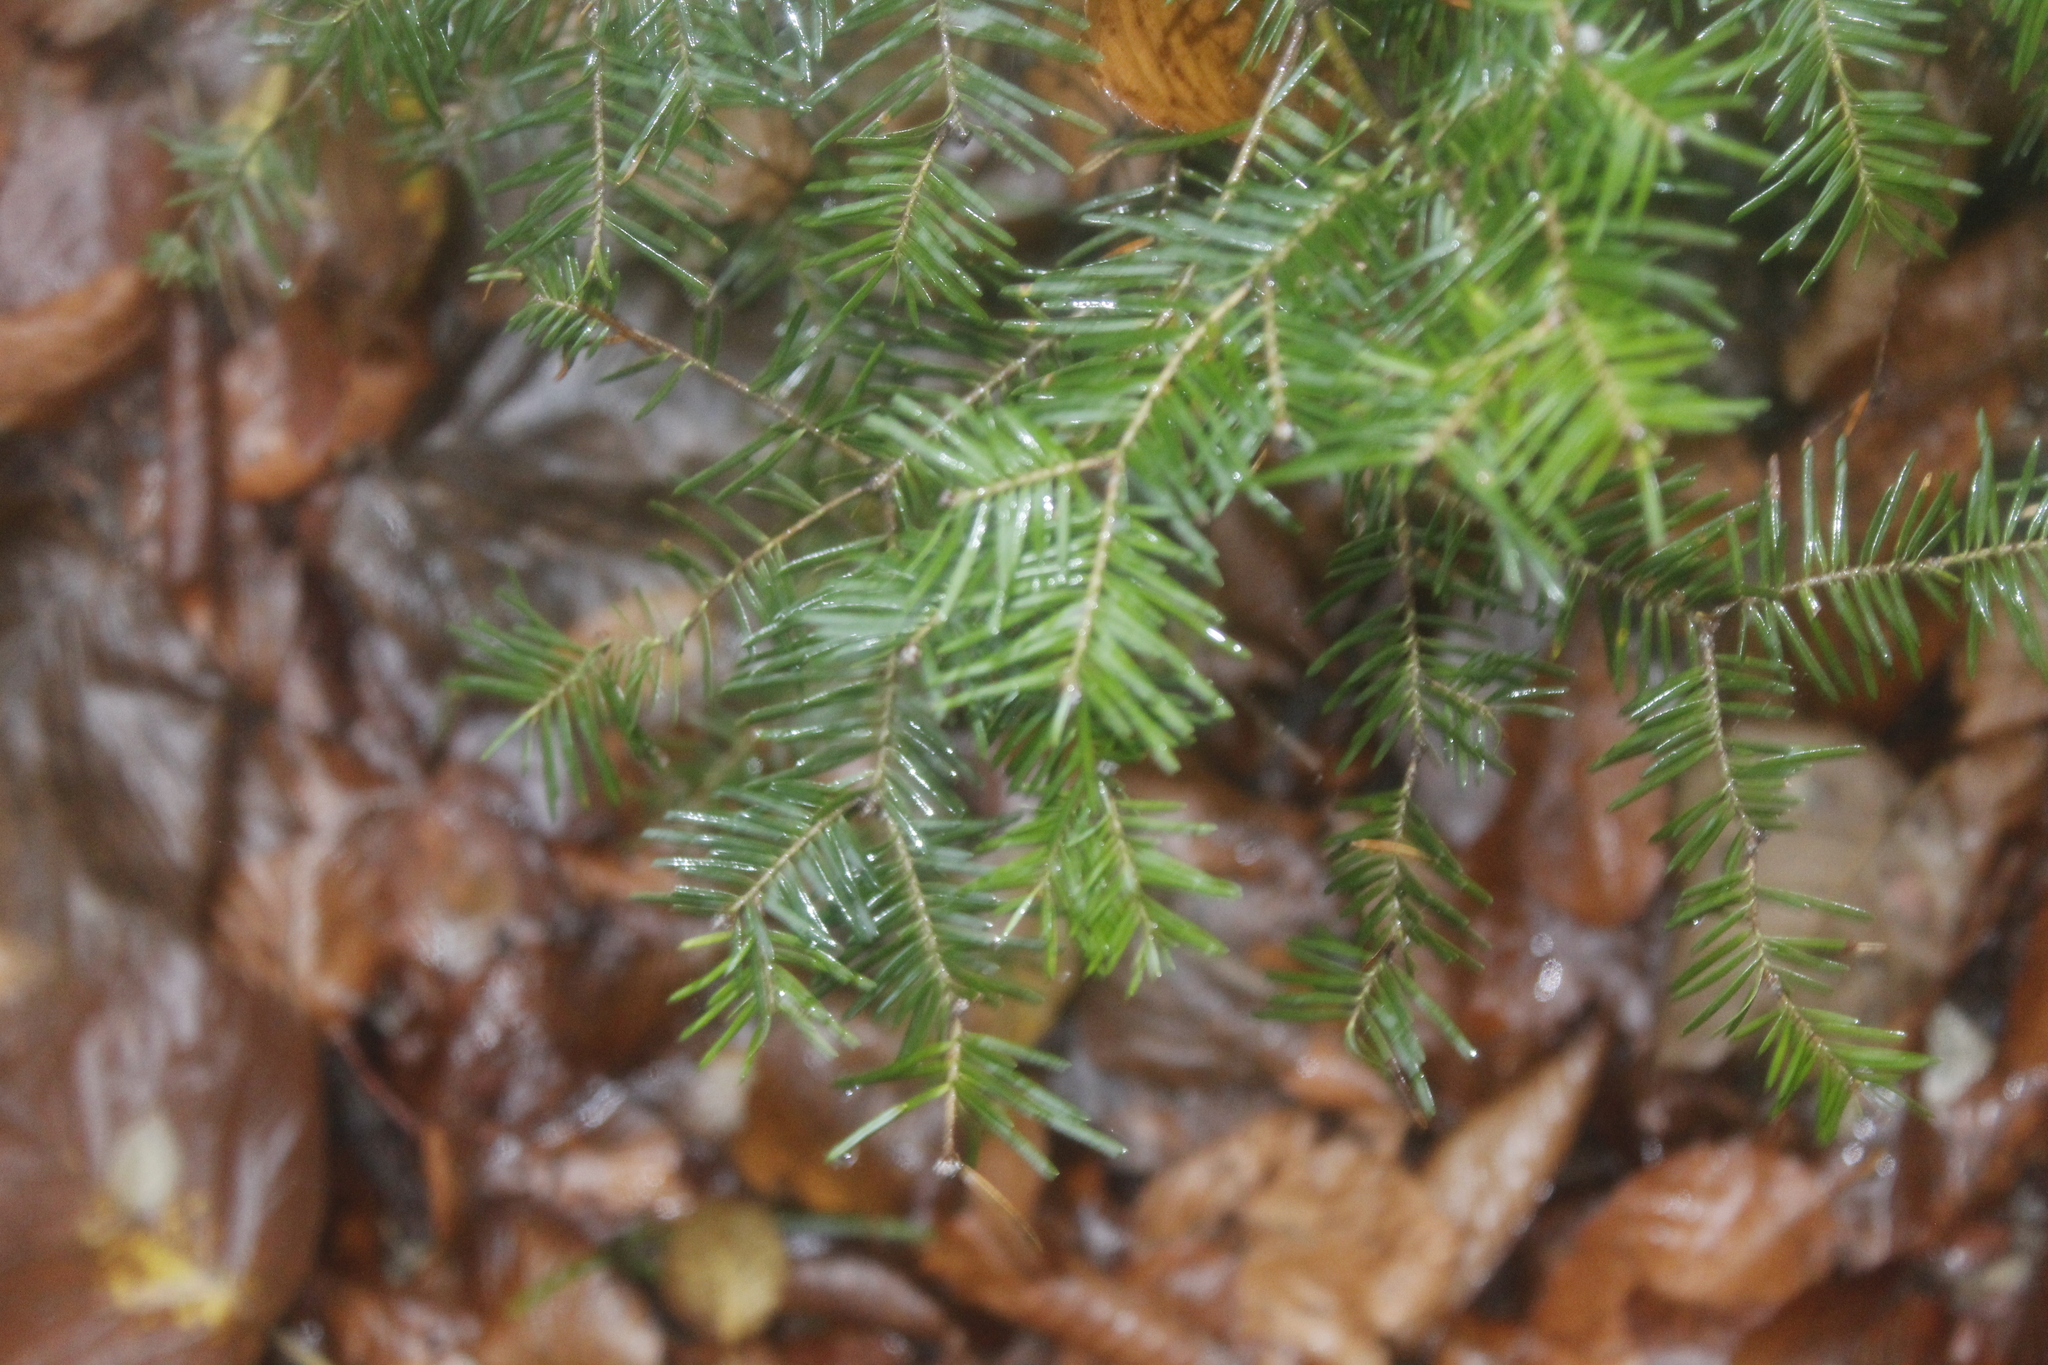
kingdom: Plantae
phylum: Tracheophyta
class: Pinopsida
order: Pinales
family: Pinaceae
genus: Abies
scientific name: Abies balsamea
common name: Balsam fir
